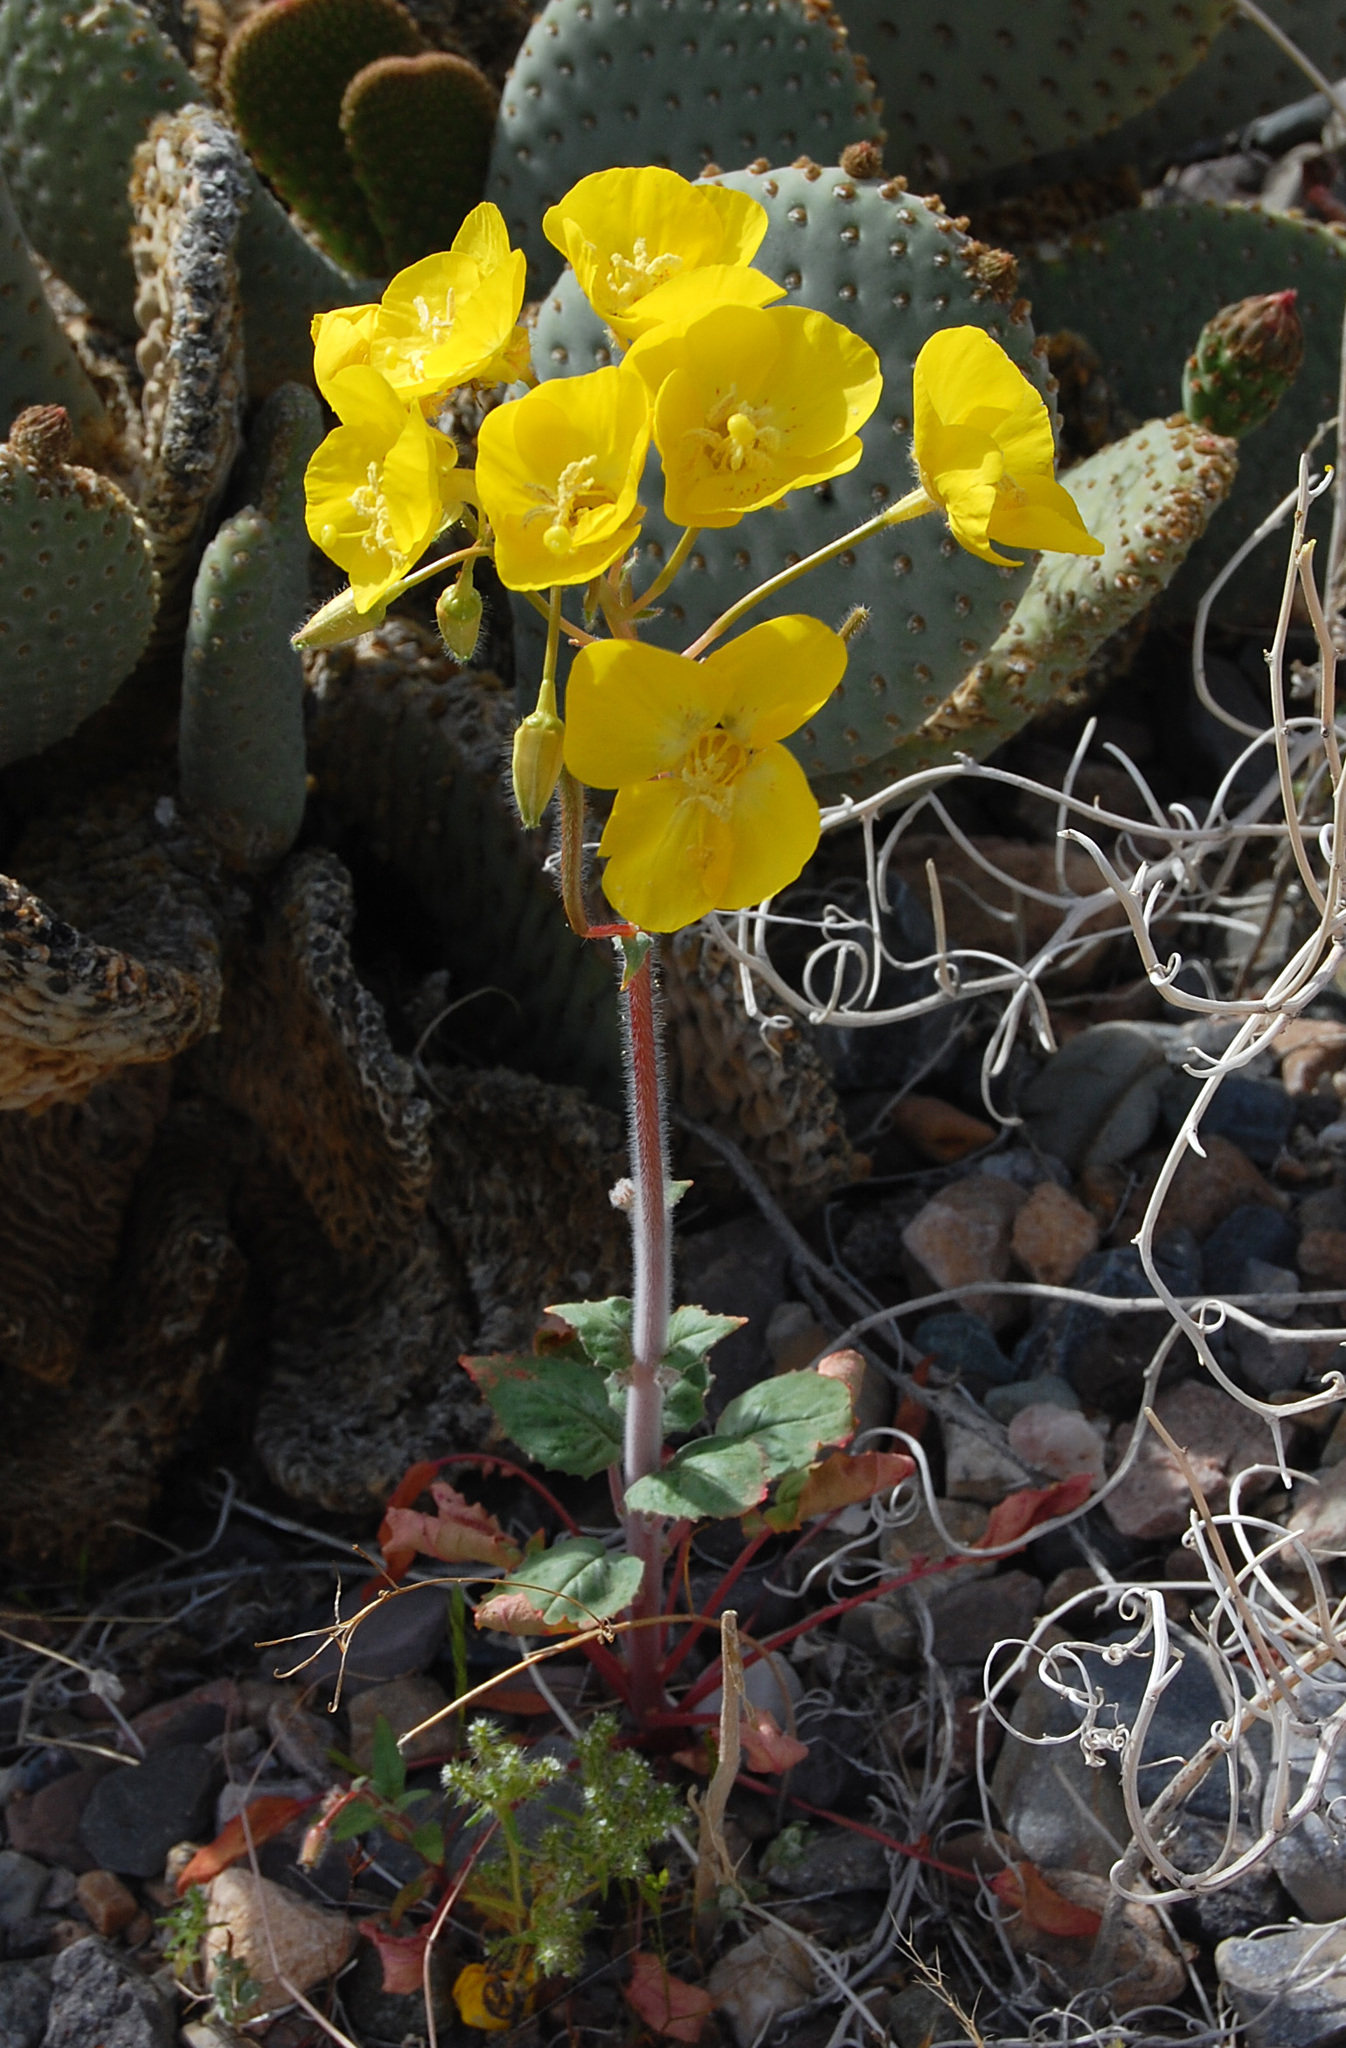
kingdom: Plantae
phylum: Tracheophyta
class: Magnoliopsida
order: Myrtales
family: Onagraceae
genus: Chylismia
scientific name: Chylismia brevipes
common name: Yellow cups
